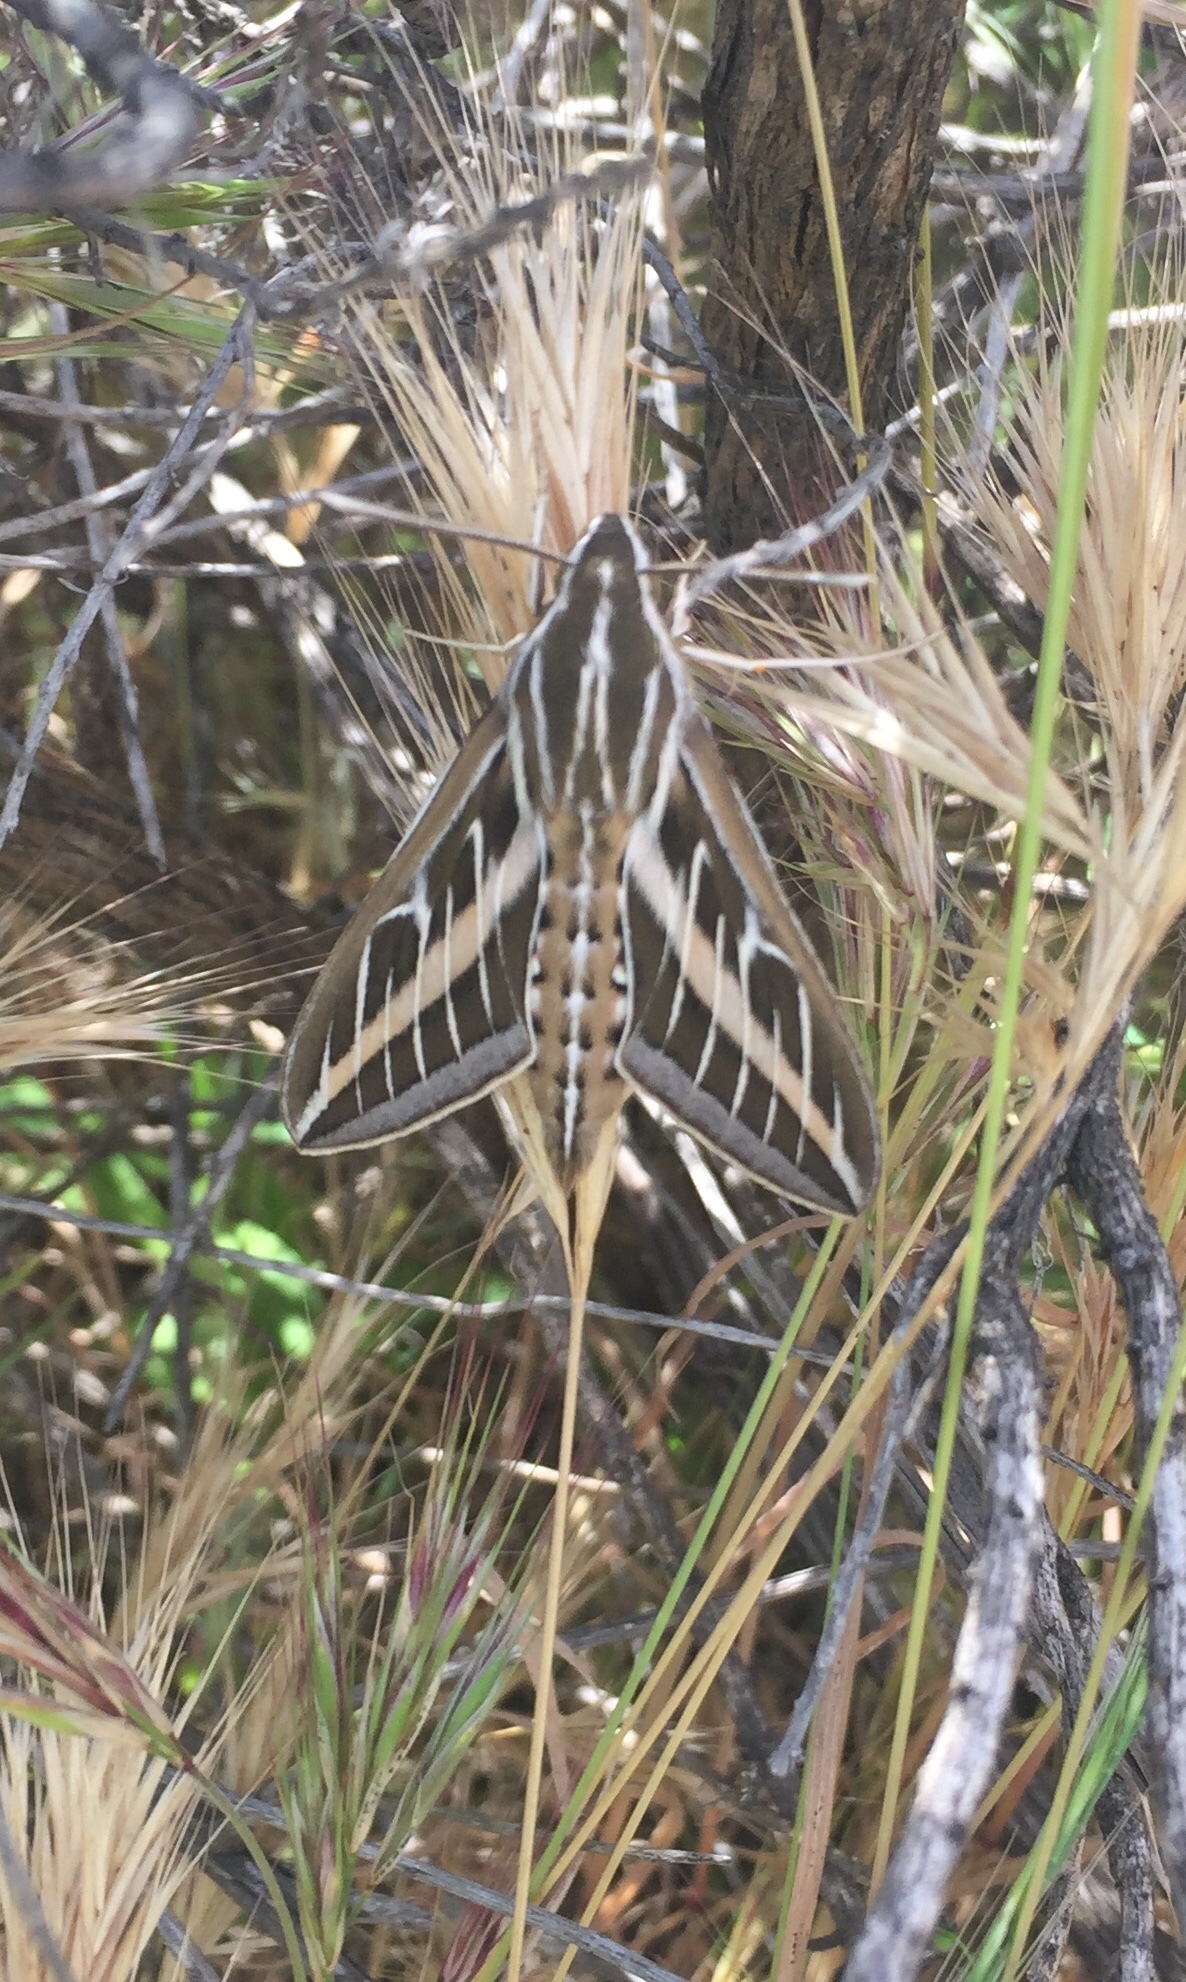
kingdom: Animalia
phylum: Arthropoda
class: Insecta
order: Lepidoptera
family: Sphingidae
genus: Hyles
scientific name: Hyles lineata
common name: White-lined sphinx
